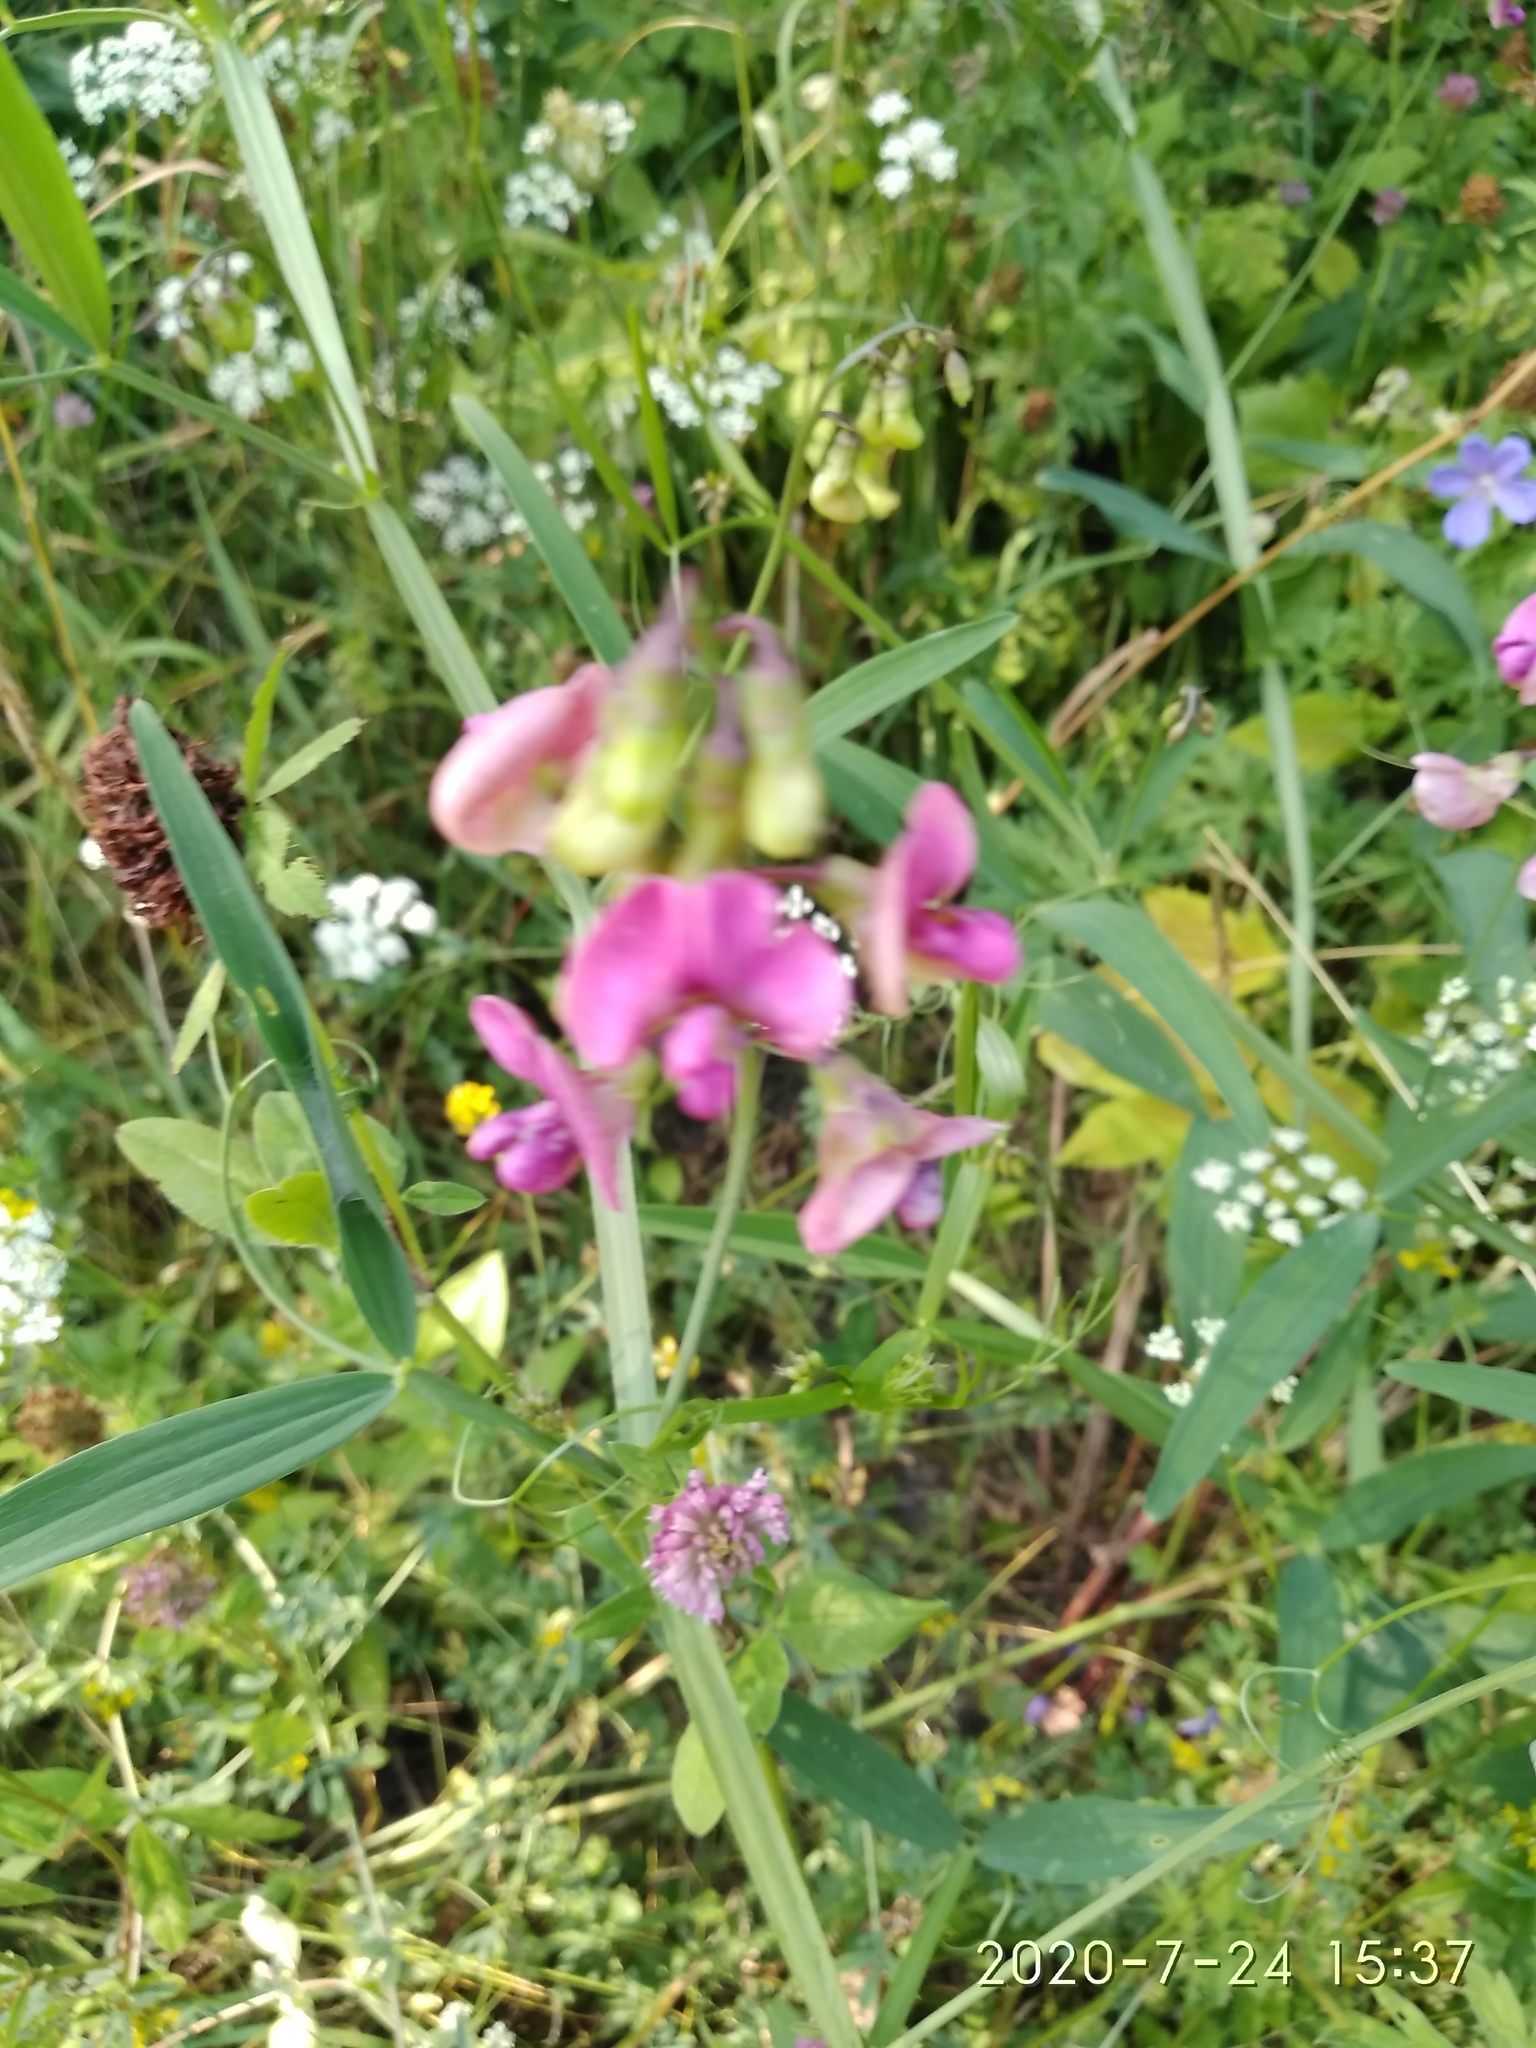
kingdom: Plantae
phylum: Tracheophyta
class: Magnoliopsida
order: Fabales
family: Fabaceae
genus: Lathyrus
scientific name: Lathyrus sylvestris
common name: Flat pea
